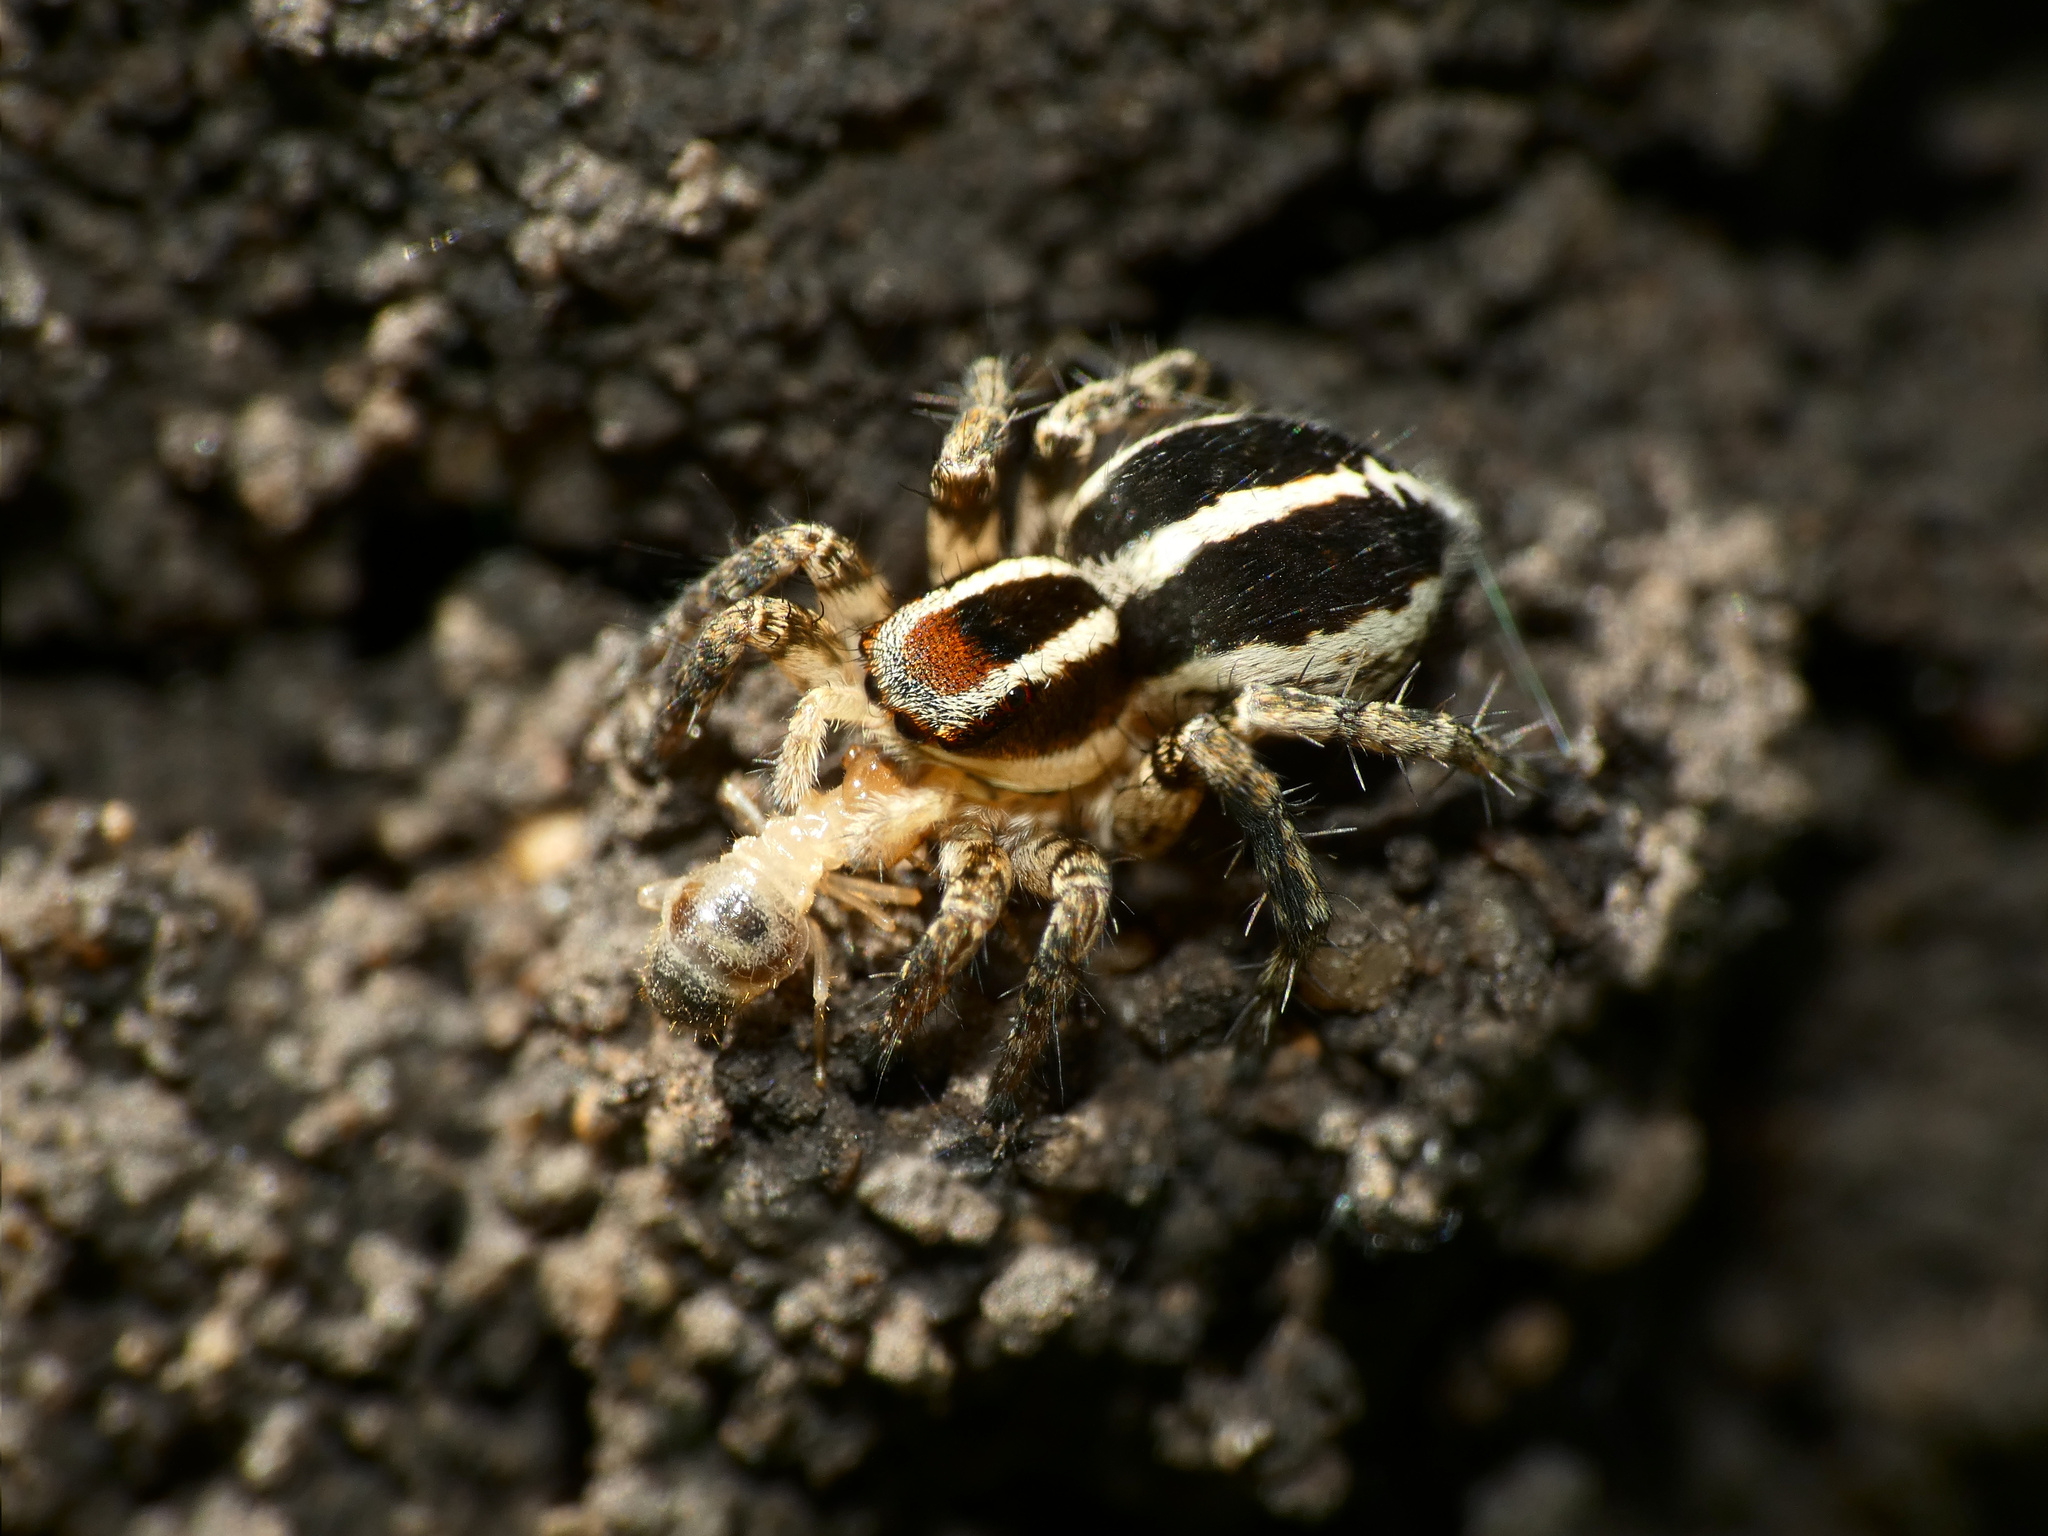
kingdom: Animalia
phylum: Arthropoda
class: Arachnida
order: Araneae
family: Salticidae
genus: Stenaelurillus
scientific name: Stenaelurillus termitophagus
